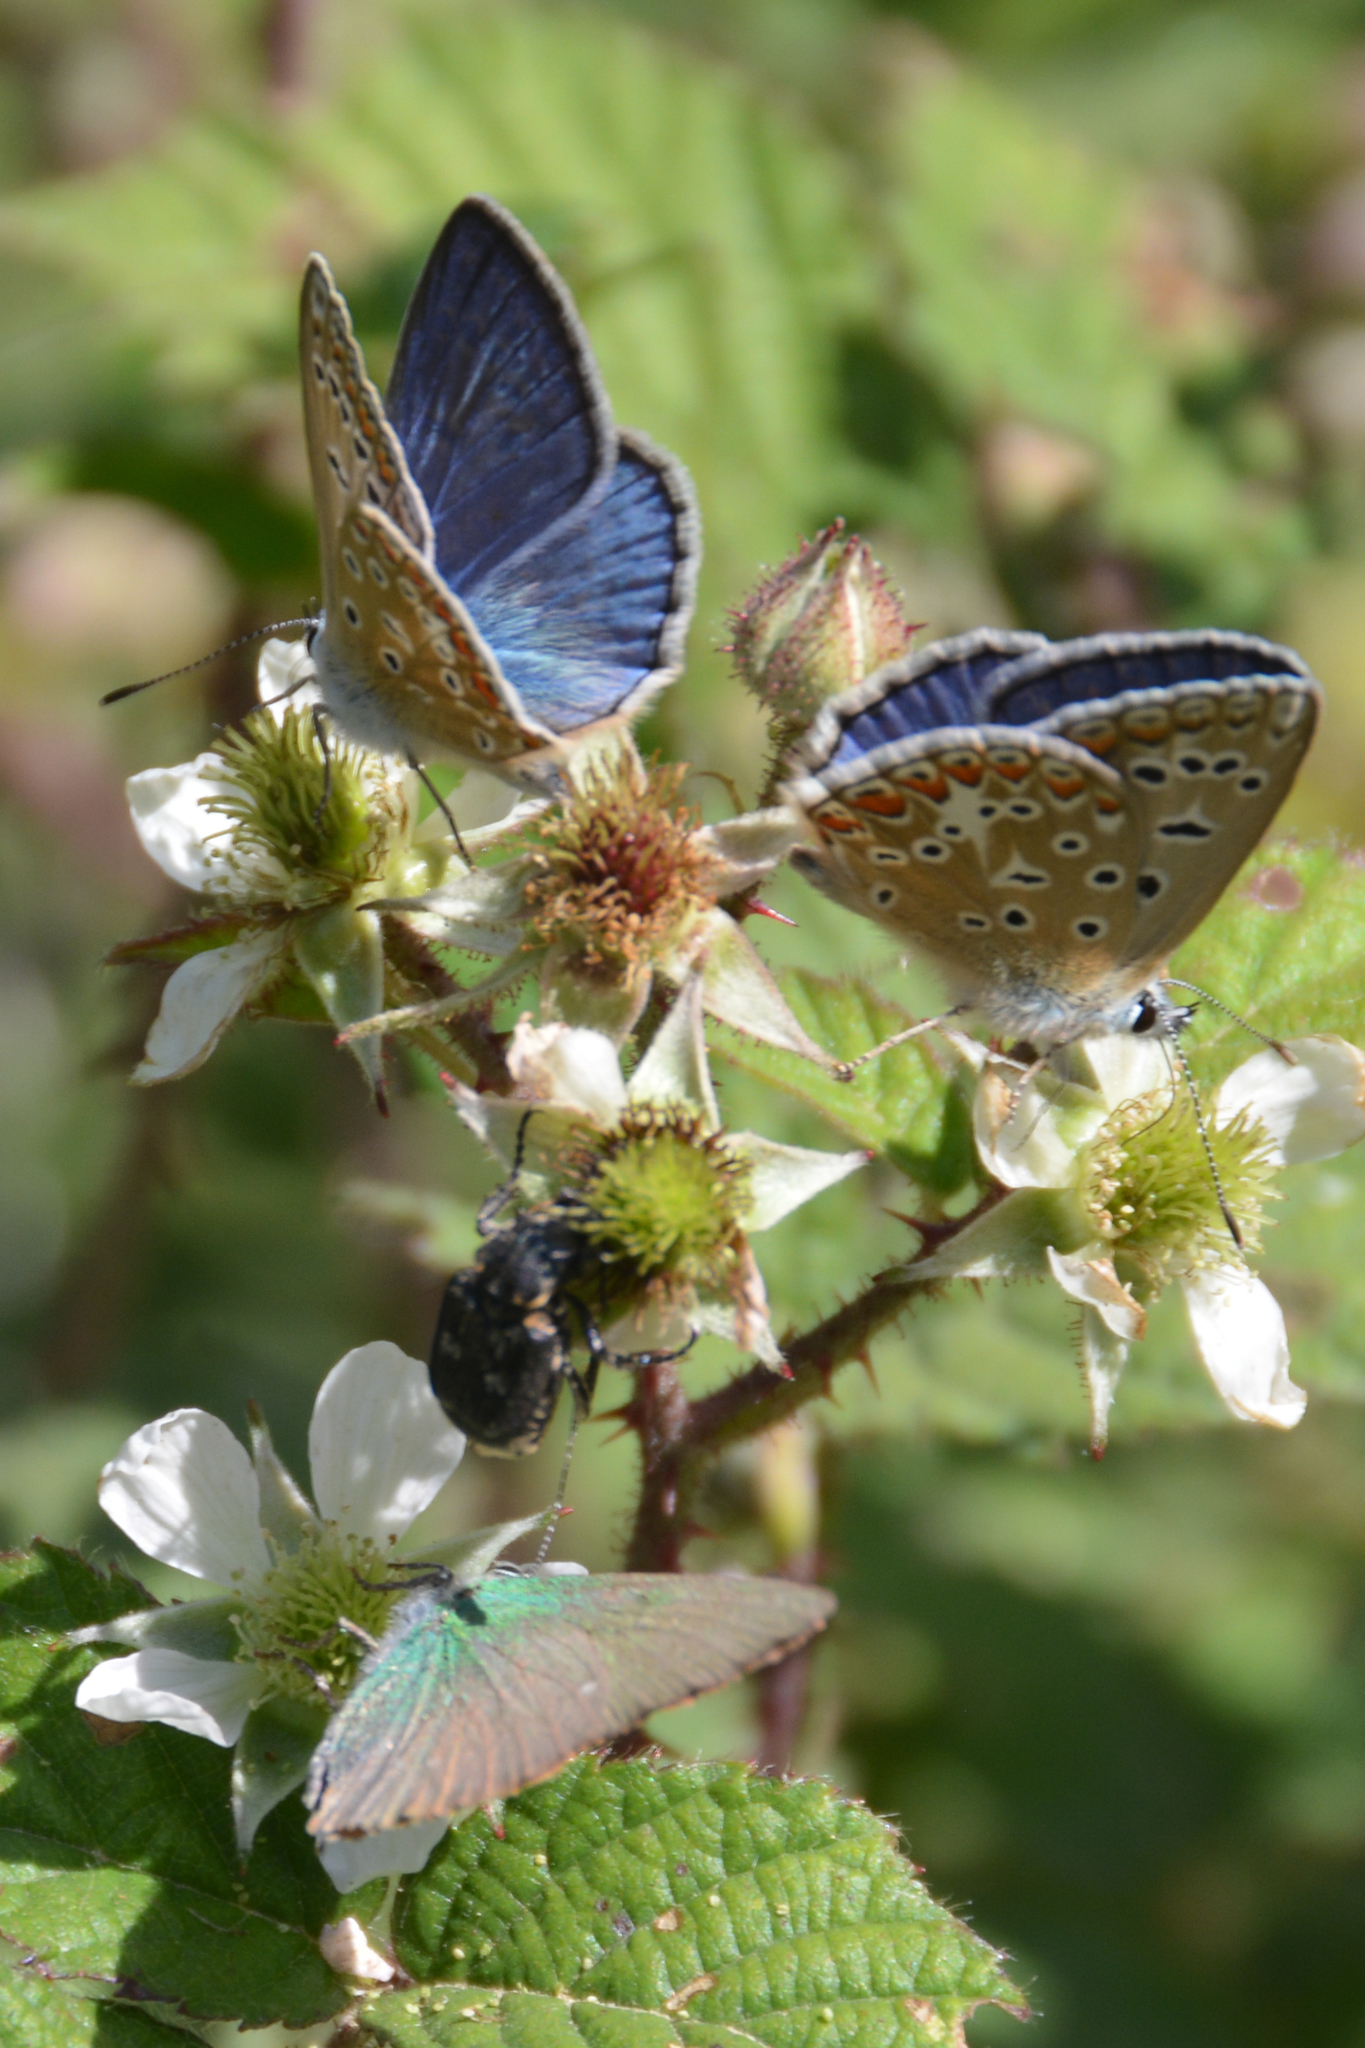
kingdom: Animalia
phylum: Arthropoda
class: Insecta
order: Lepidoptera
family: Lycaenidae
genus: Polyommatus
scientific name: Polyommatus celina
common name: Austaut's blue
